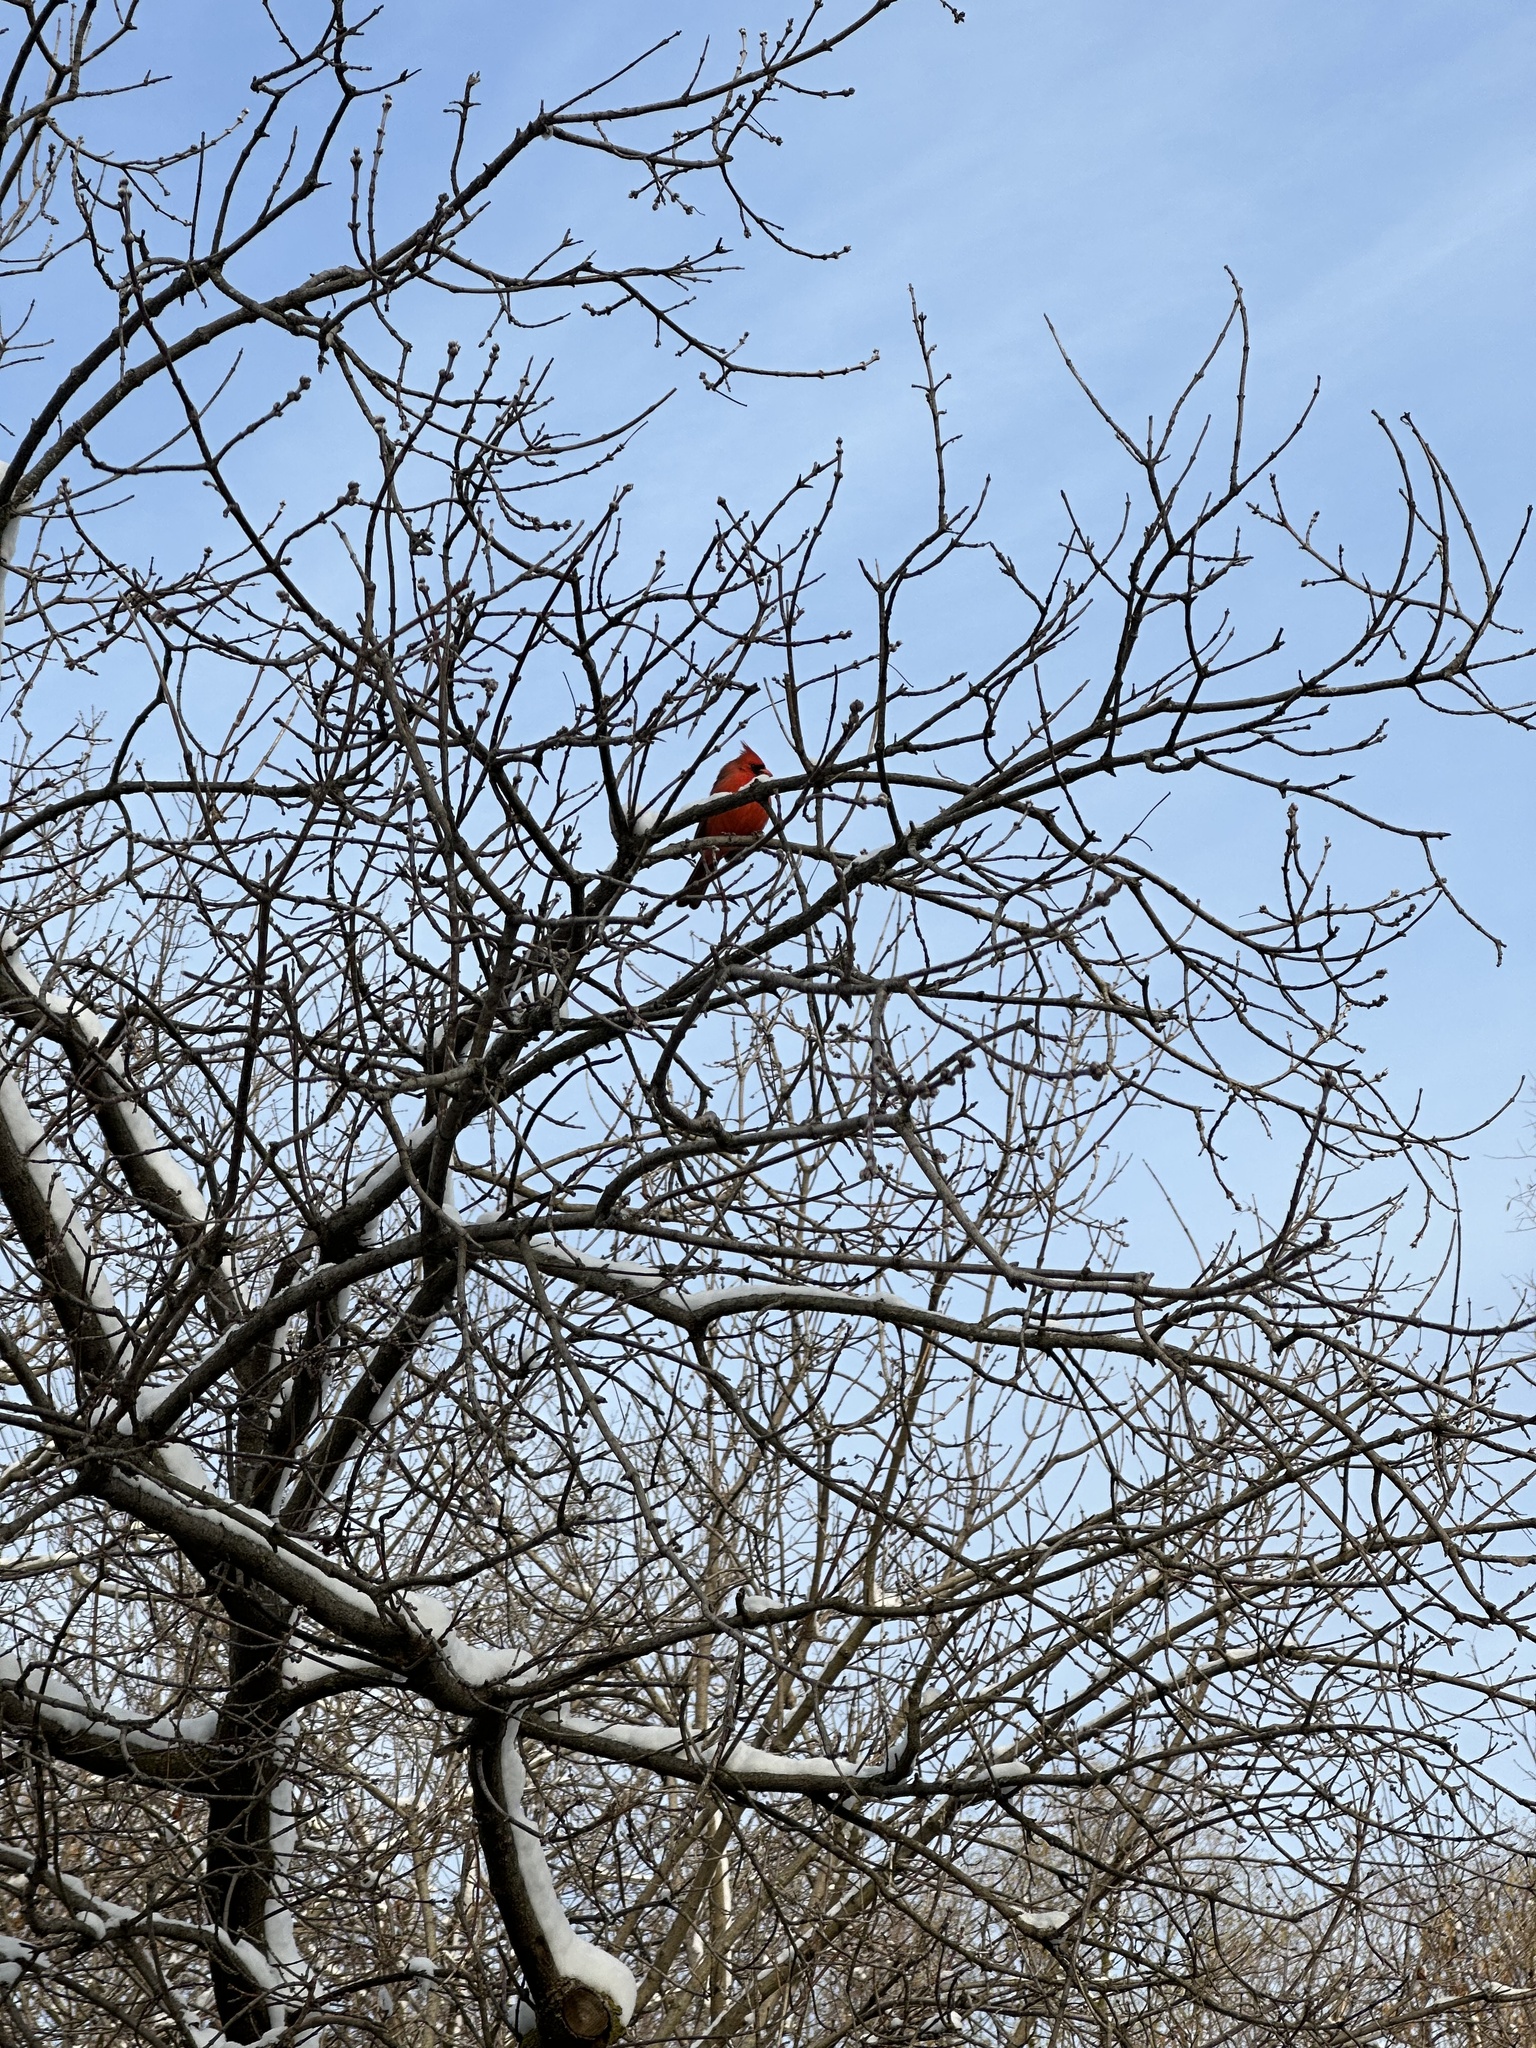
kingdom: Animalia
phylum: Chordata
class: Aves
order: Passeriformes
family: Cardinalidae
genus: Cardinalis
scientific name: Cardinalis cardinalis
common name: Northern cardinal
